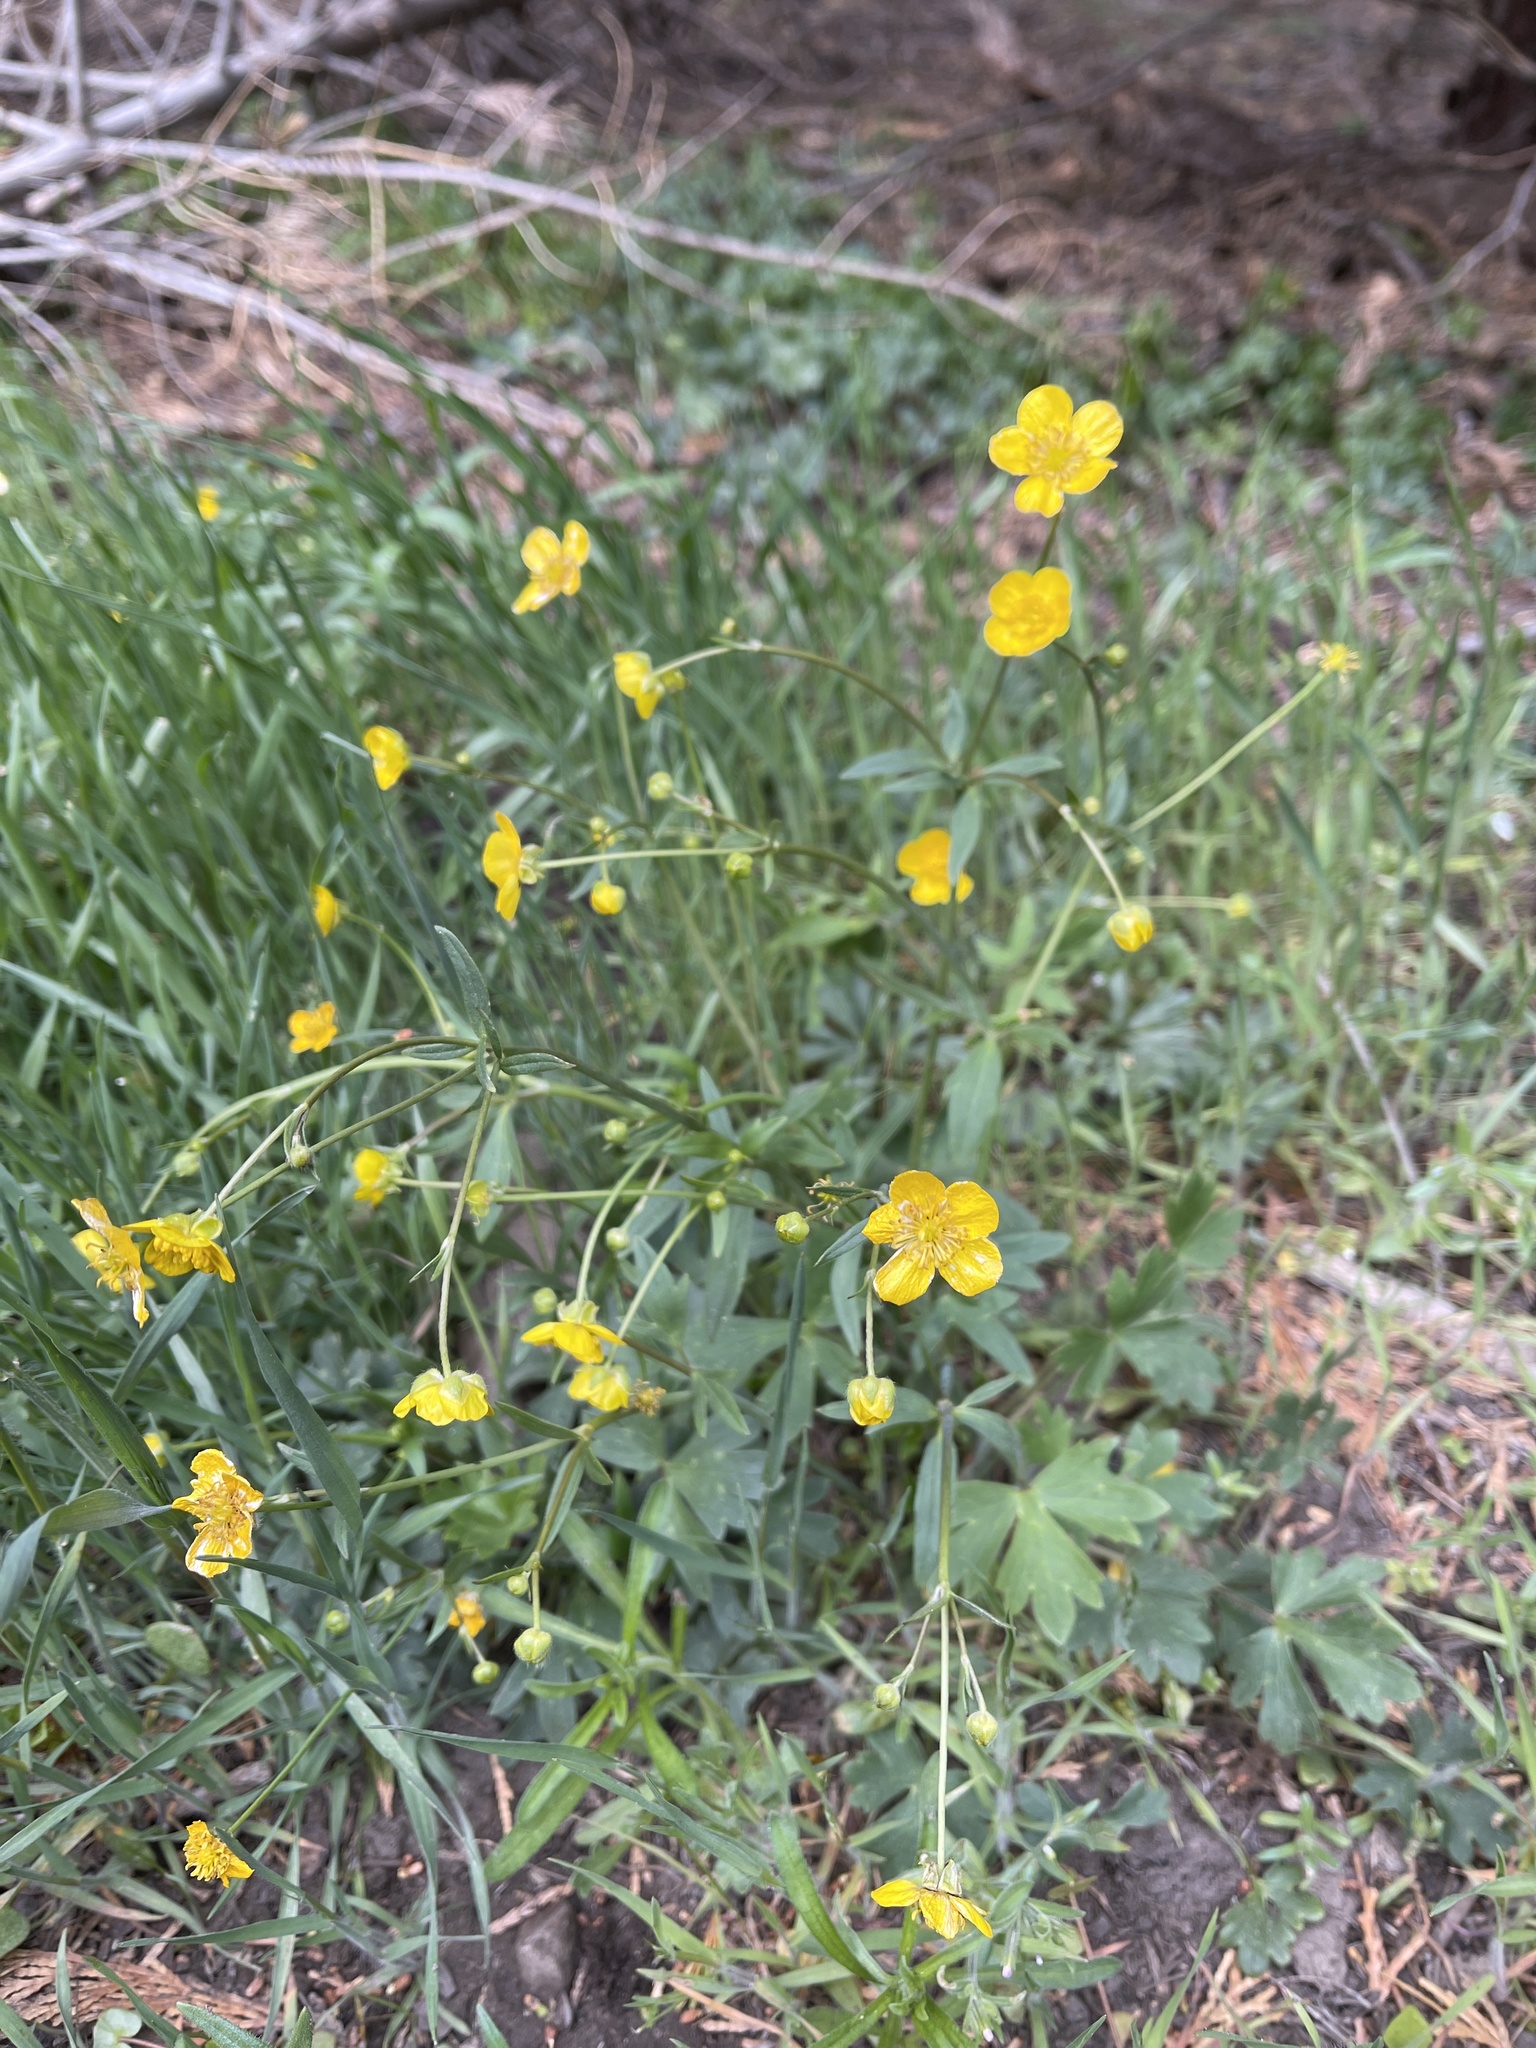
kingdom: Plantae
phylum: Tracheophyta
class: Magnoliopsida
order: Ranunculales
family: Ranunculaceae
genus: Ranunculus
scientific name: Ranunculus occidentalis
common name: Western buttercup
